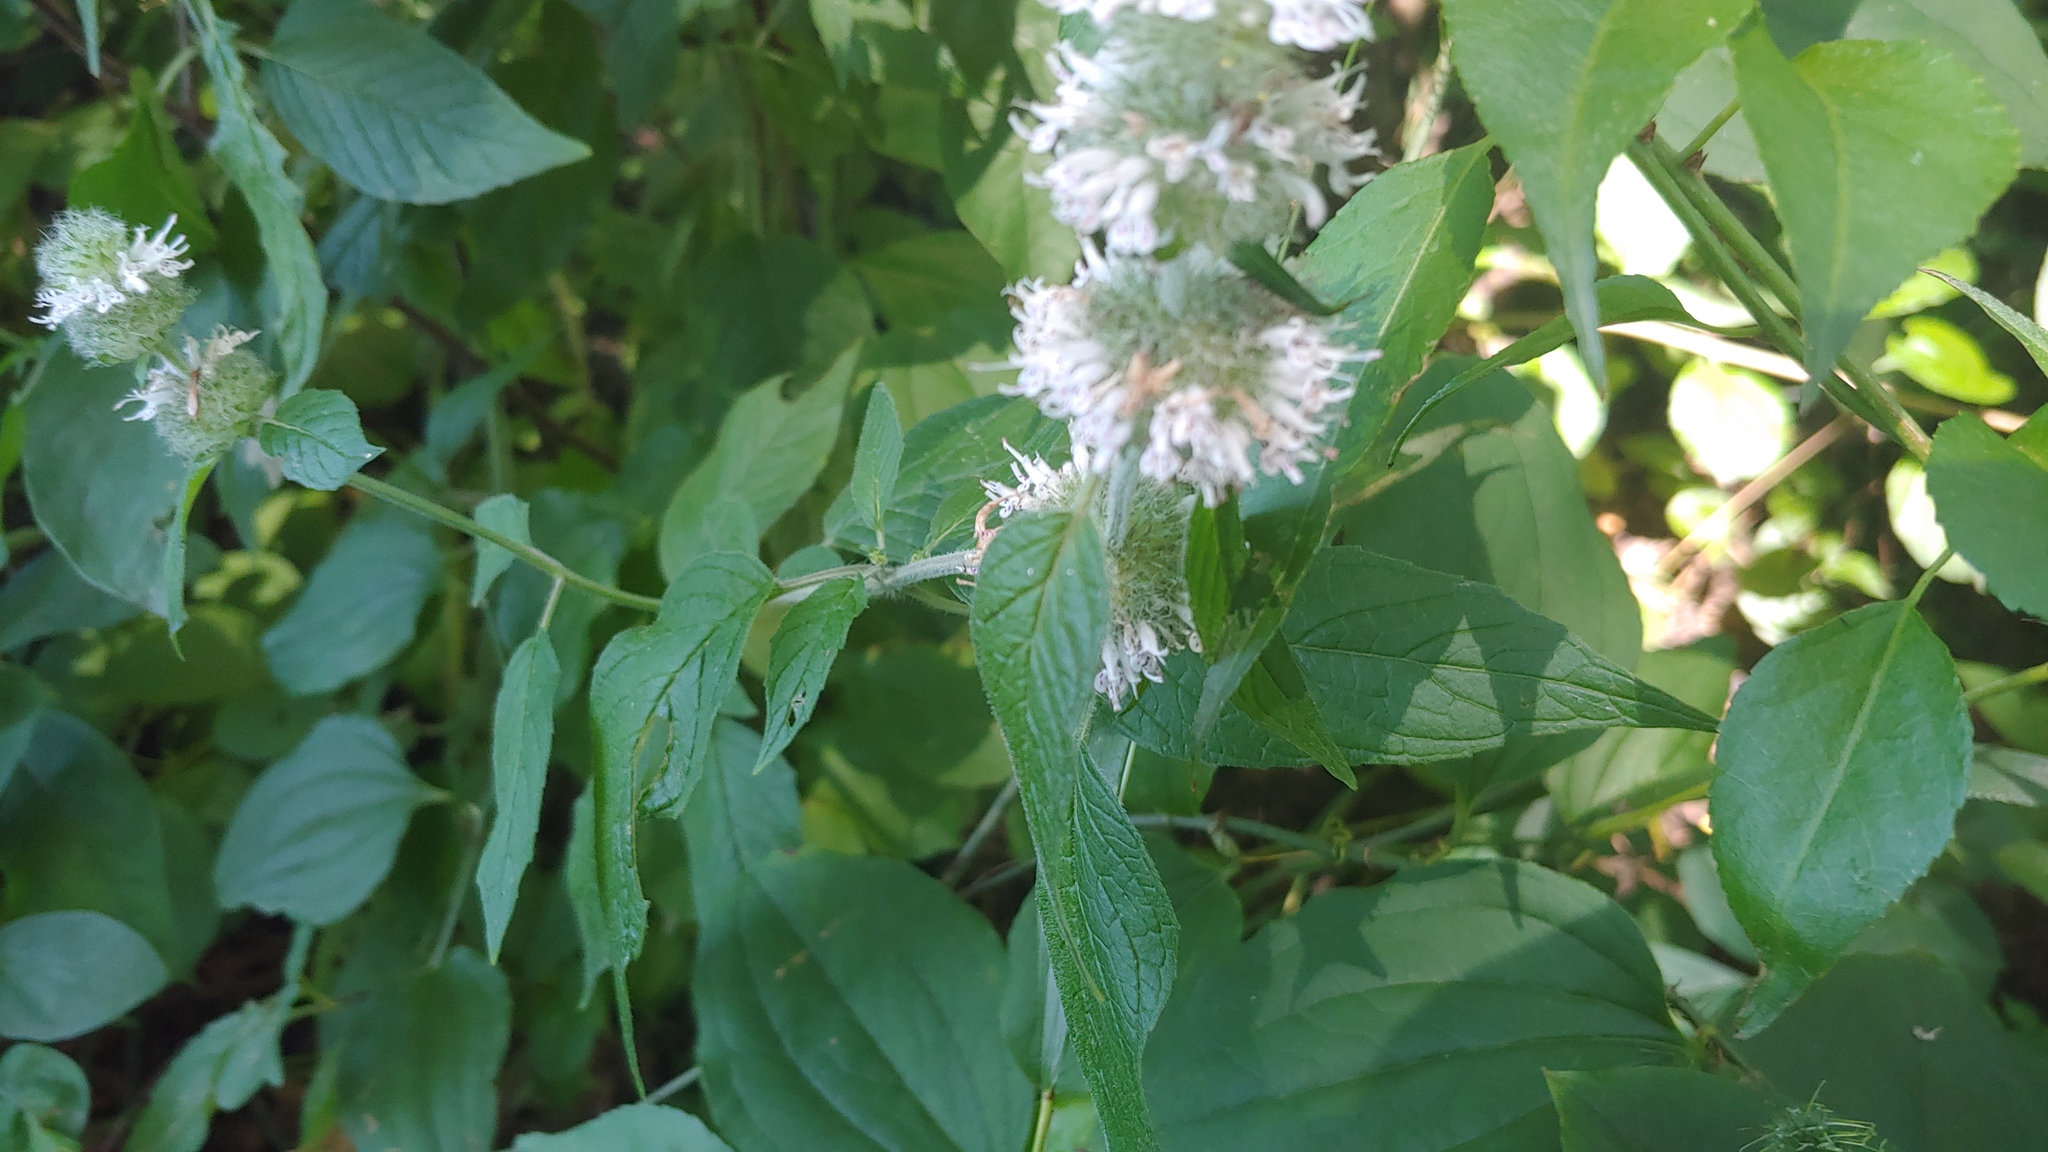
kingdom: Plantae
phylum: Tracheophyta
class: Magnoliopsida
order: Lamiales
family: Lamiaceae
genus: Blephilia
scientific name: Blephilia hirsuta
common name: Hairy blephilia
